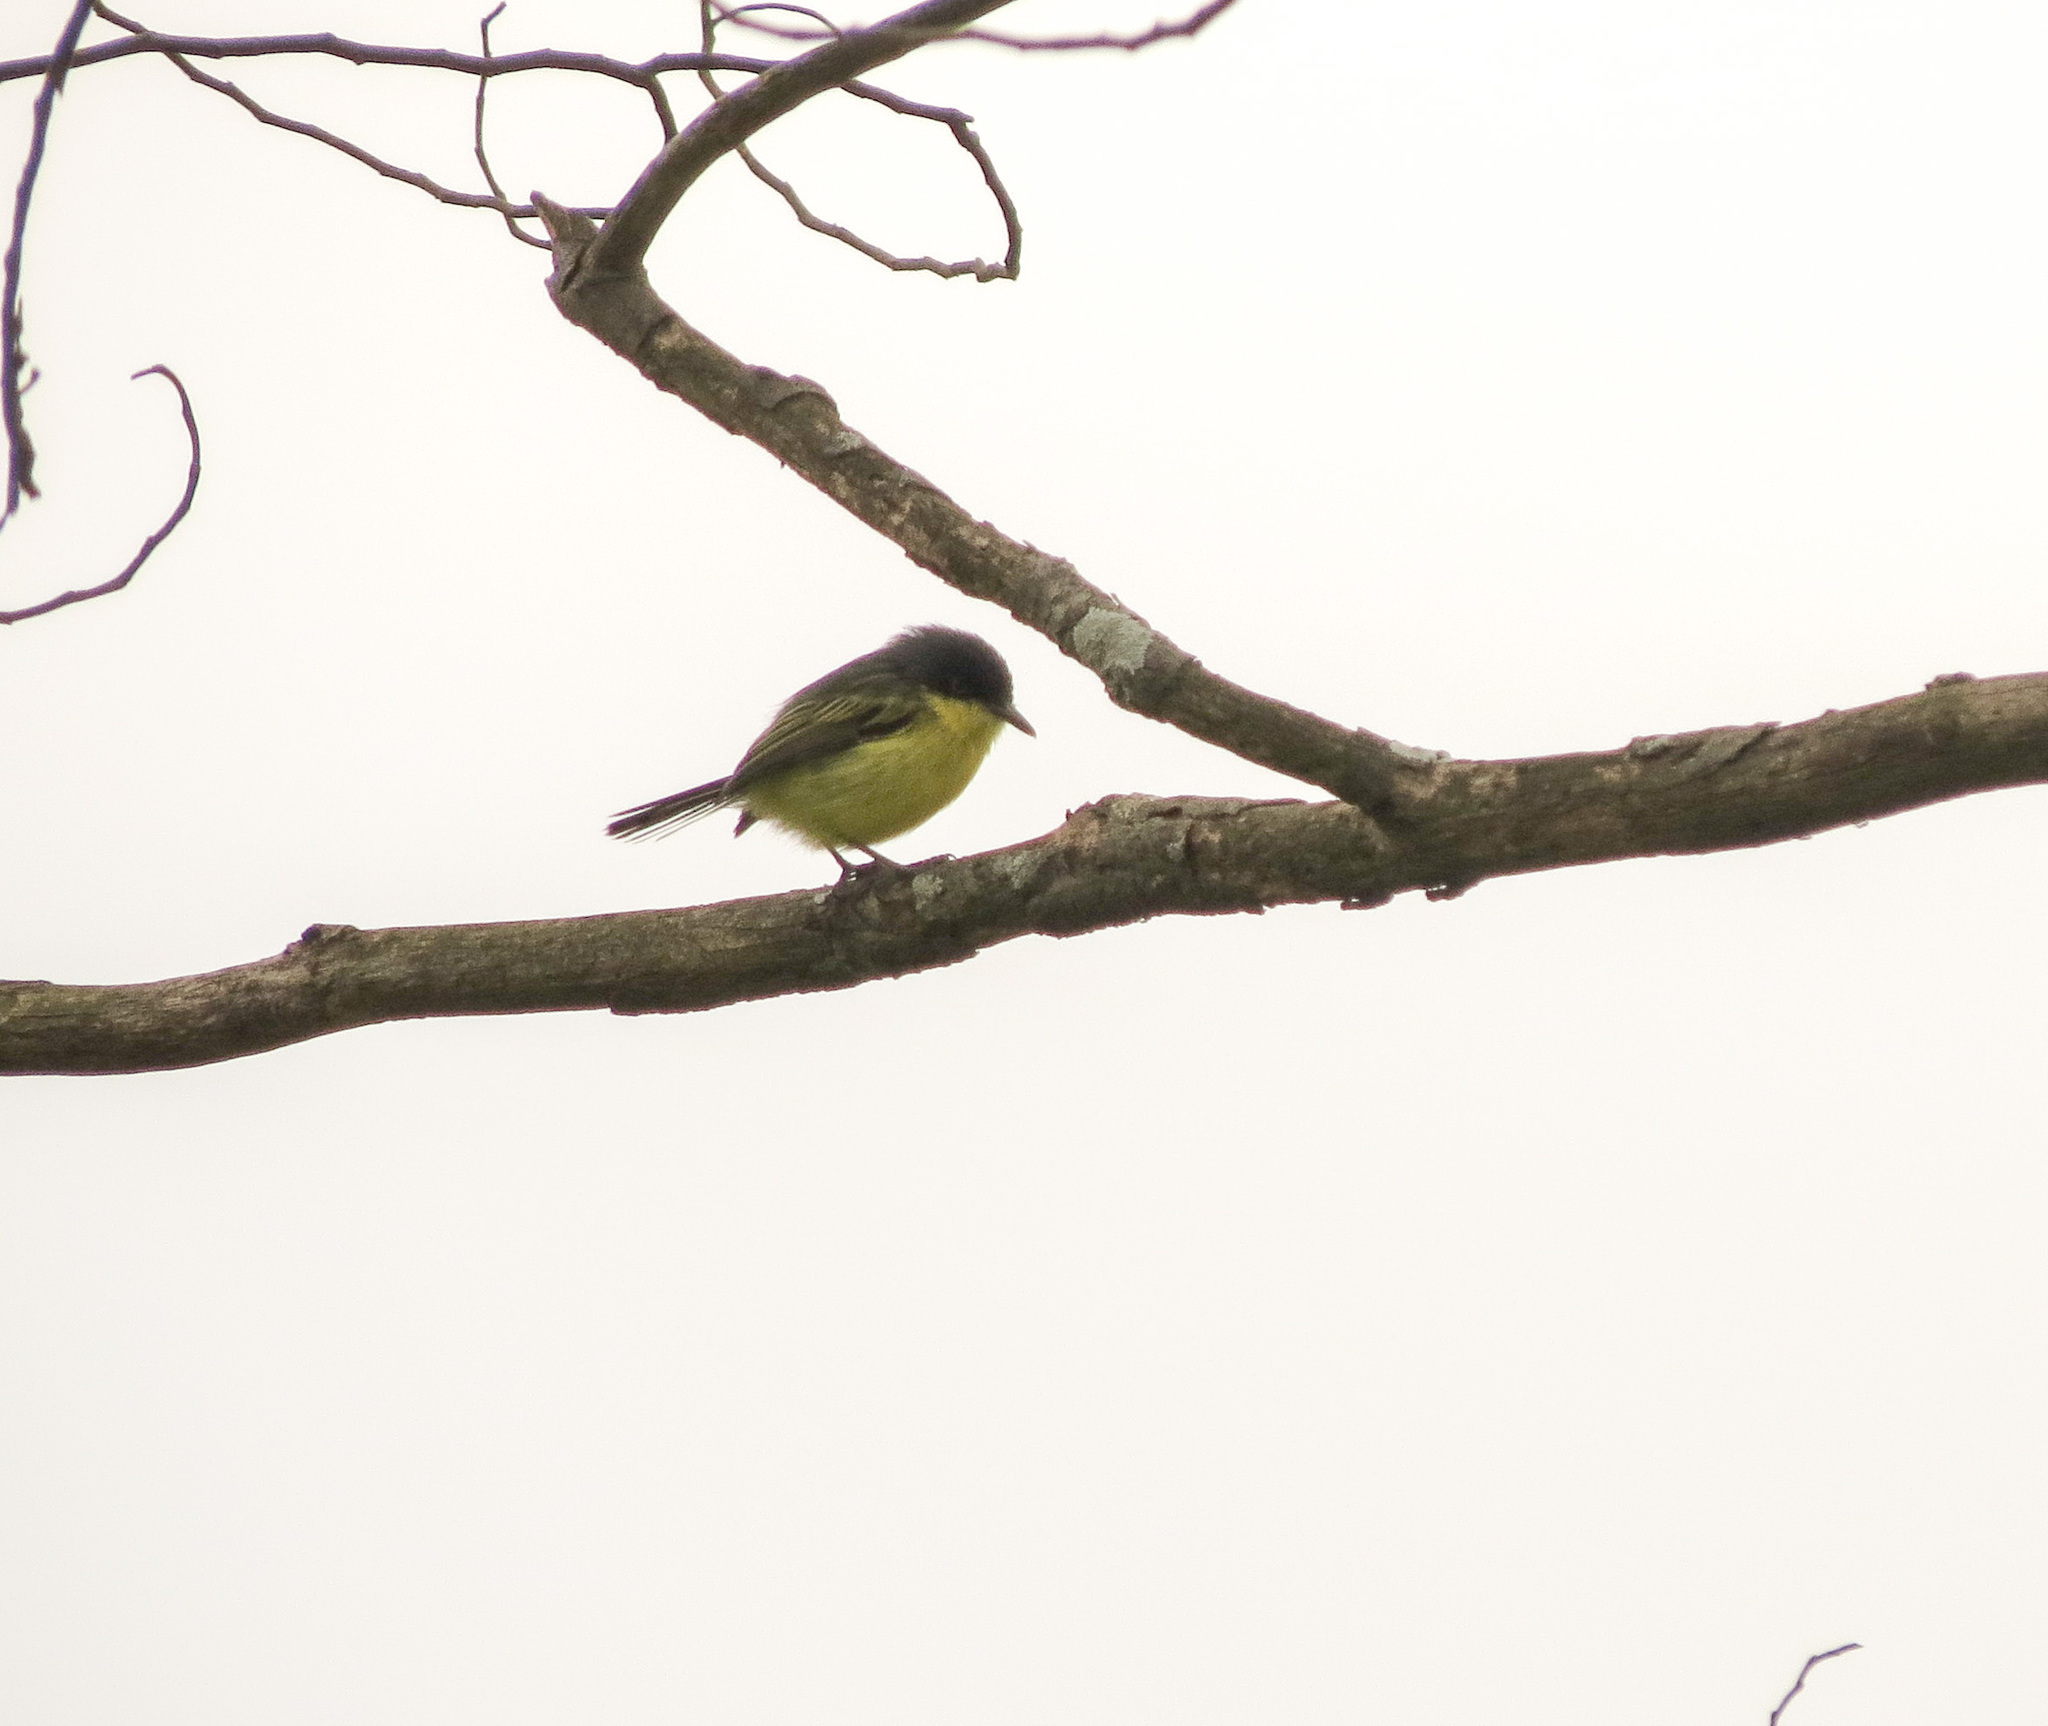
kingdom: Animalia
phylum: Chordata
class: Aves
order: Passeriformes
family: Tyrannidae
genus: Todirostrum
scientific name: Todirostrum cinereum
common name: Common tody-flycatcher
